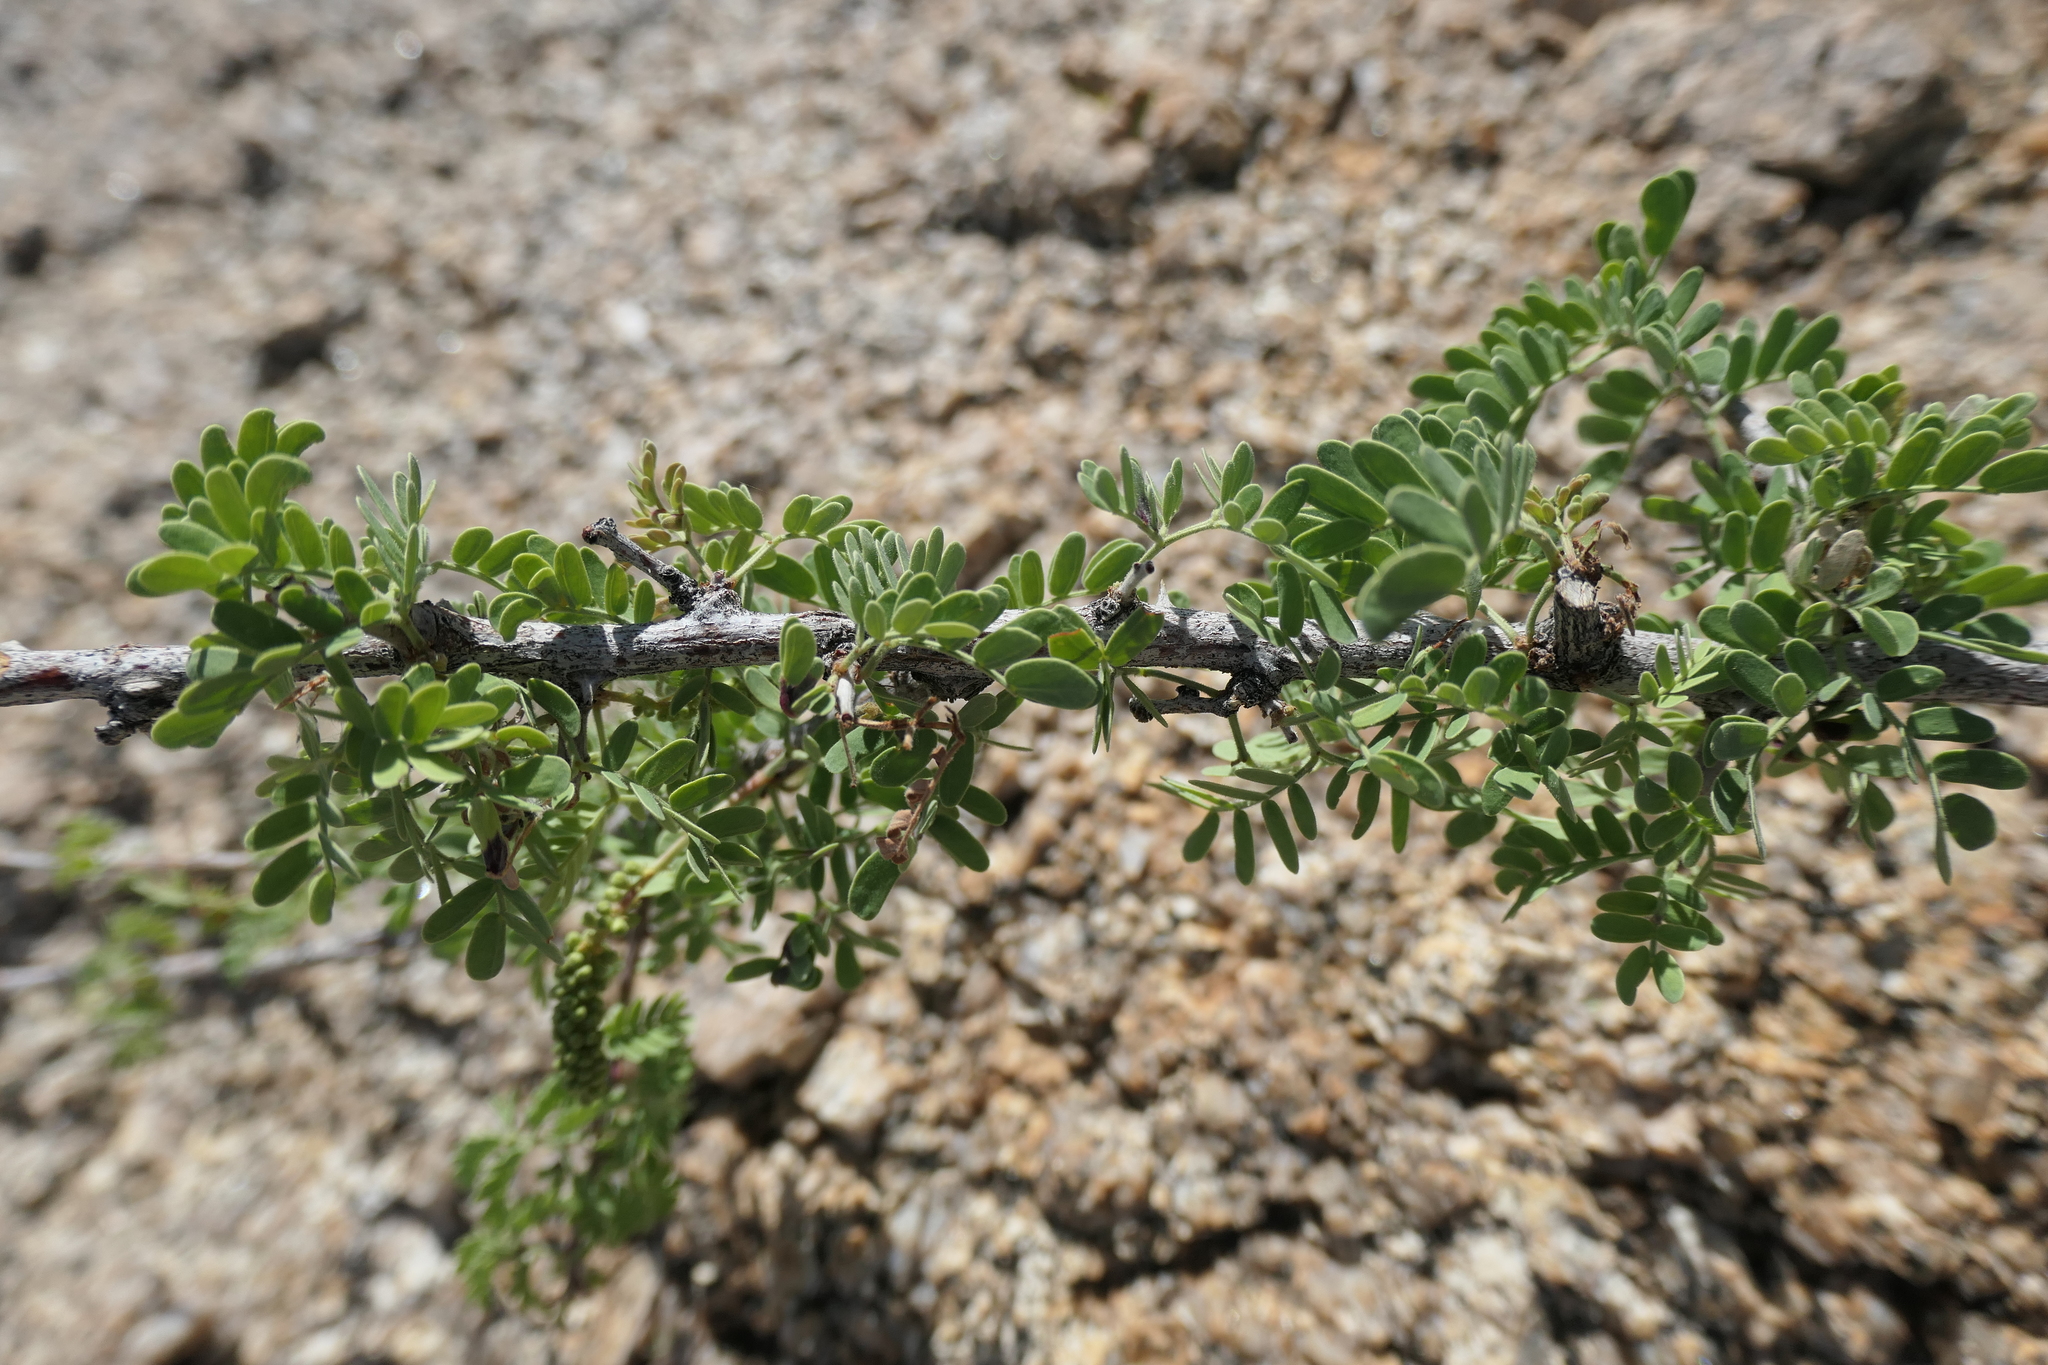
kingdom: Plantae
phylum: Tracheophyta
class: Magnoliopsida
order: Fabales
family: Fabaceae
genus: Senegalia
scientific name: Senegalia greggii
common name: Texas-mimosa
